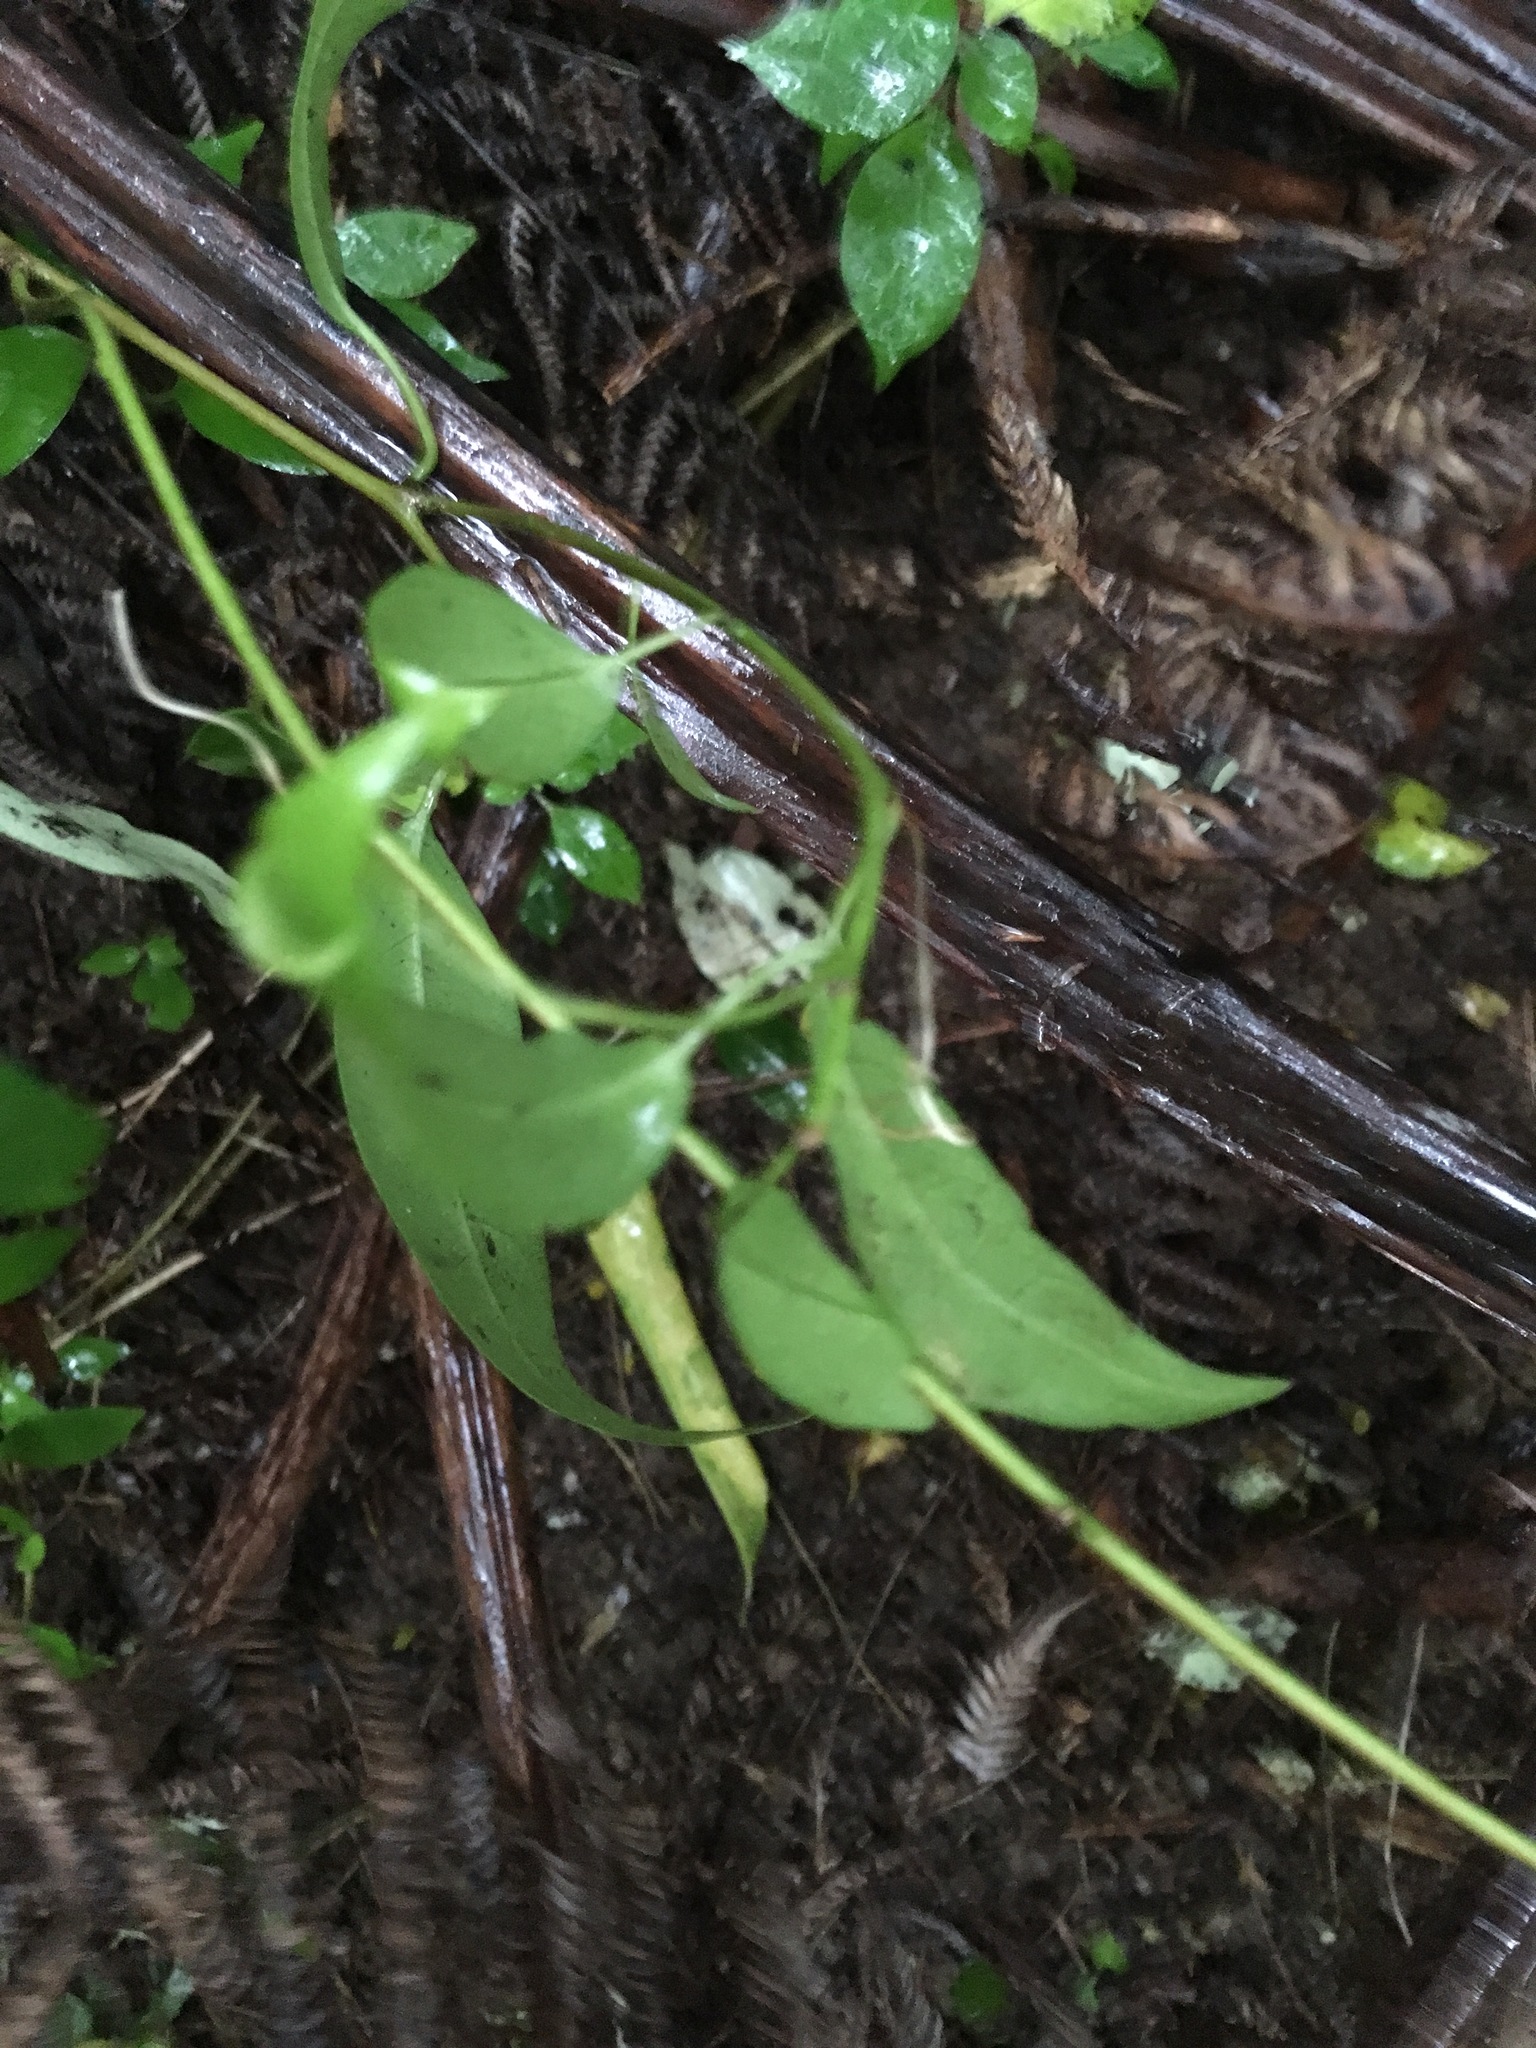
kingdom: Plantae
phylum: Tracheophyta
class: Magnoliopsida
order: Malpighiales
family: Passifloraceae
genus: Passiflora
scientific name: Passiflora tetrandra
